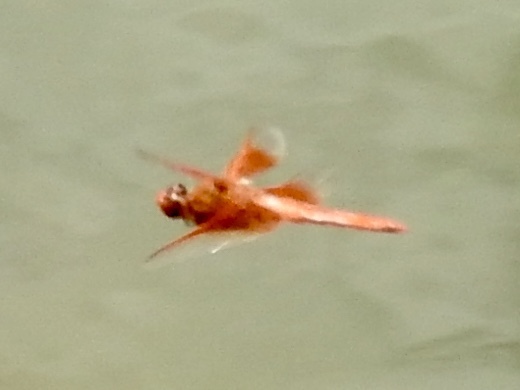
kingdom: Animalia
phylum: Arthropoda
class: Insecta
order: Odonata
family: Libellulidae
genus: Libellula
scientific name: Libellula saturata
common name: Flame skimmer
